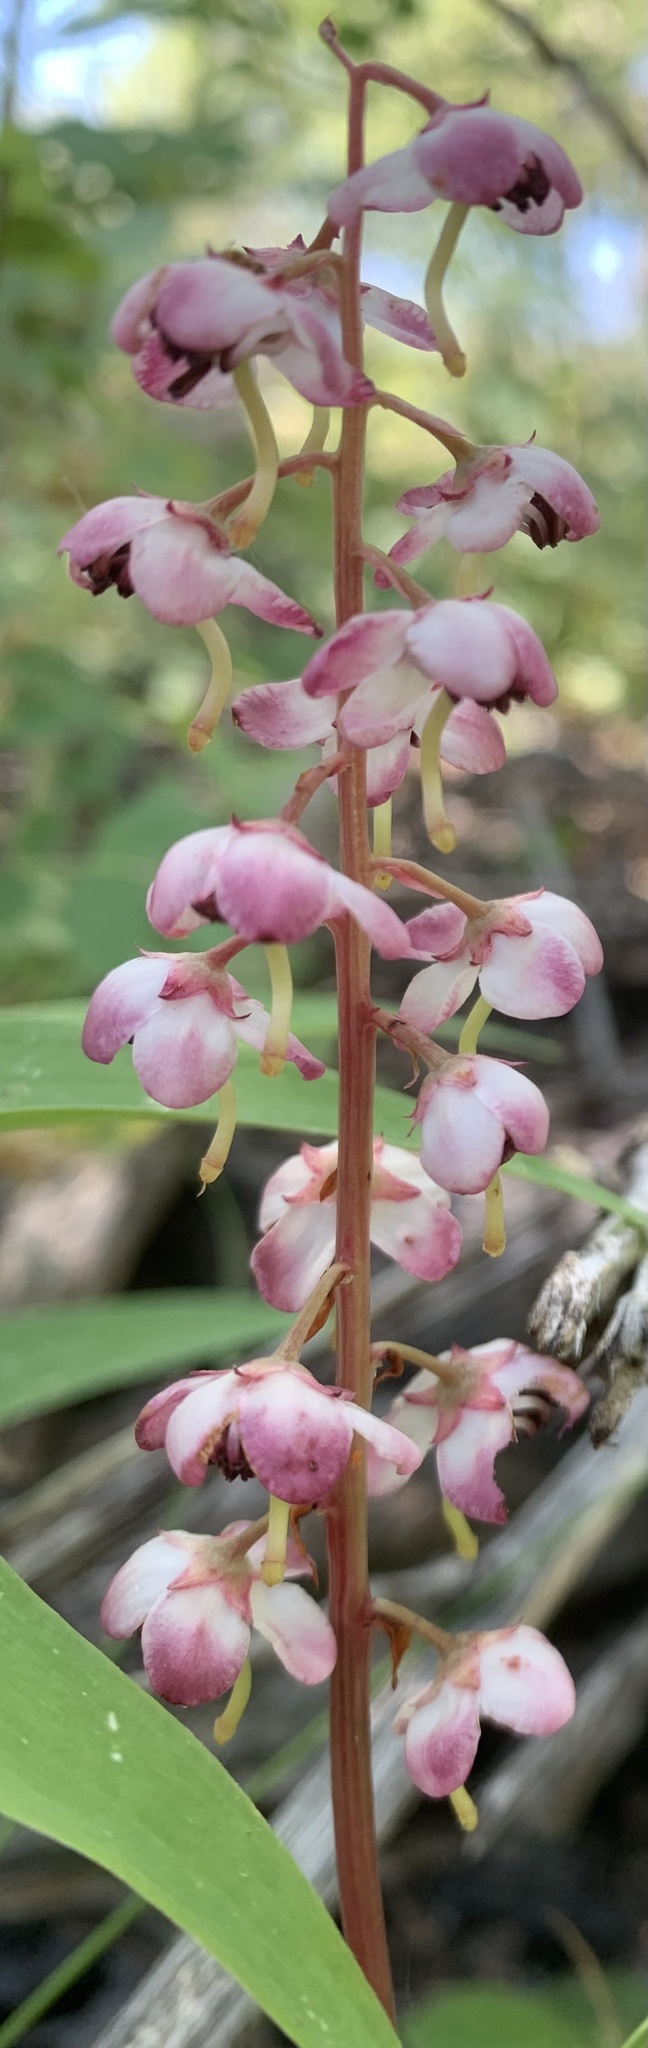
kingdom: Plantae
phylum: Tracheophyta
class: Magnoliopsida
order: Ericales
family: Ericaceae
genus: Pyrola
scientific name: Pyrola asarifolia
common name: Bog wintergreen
